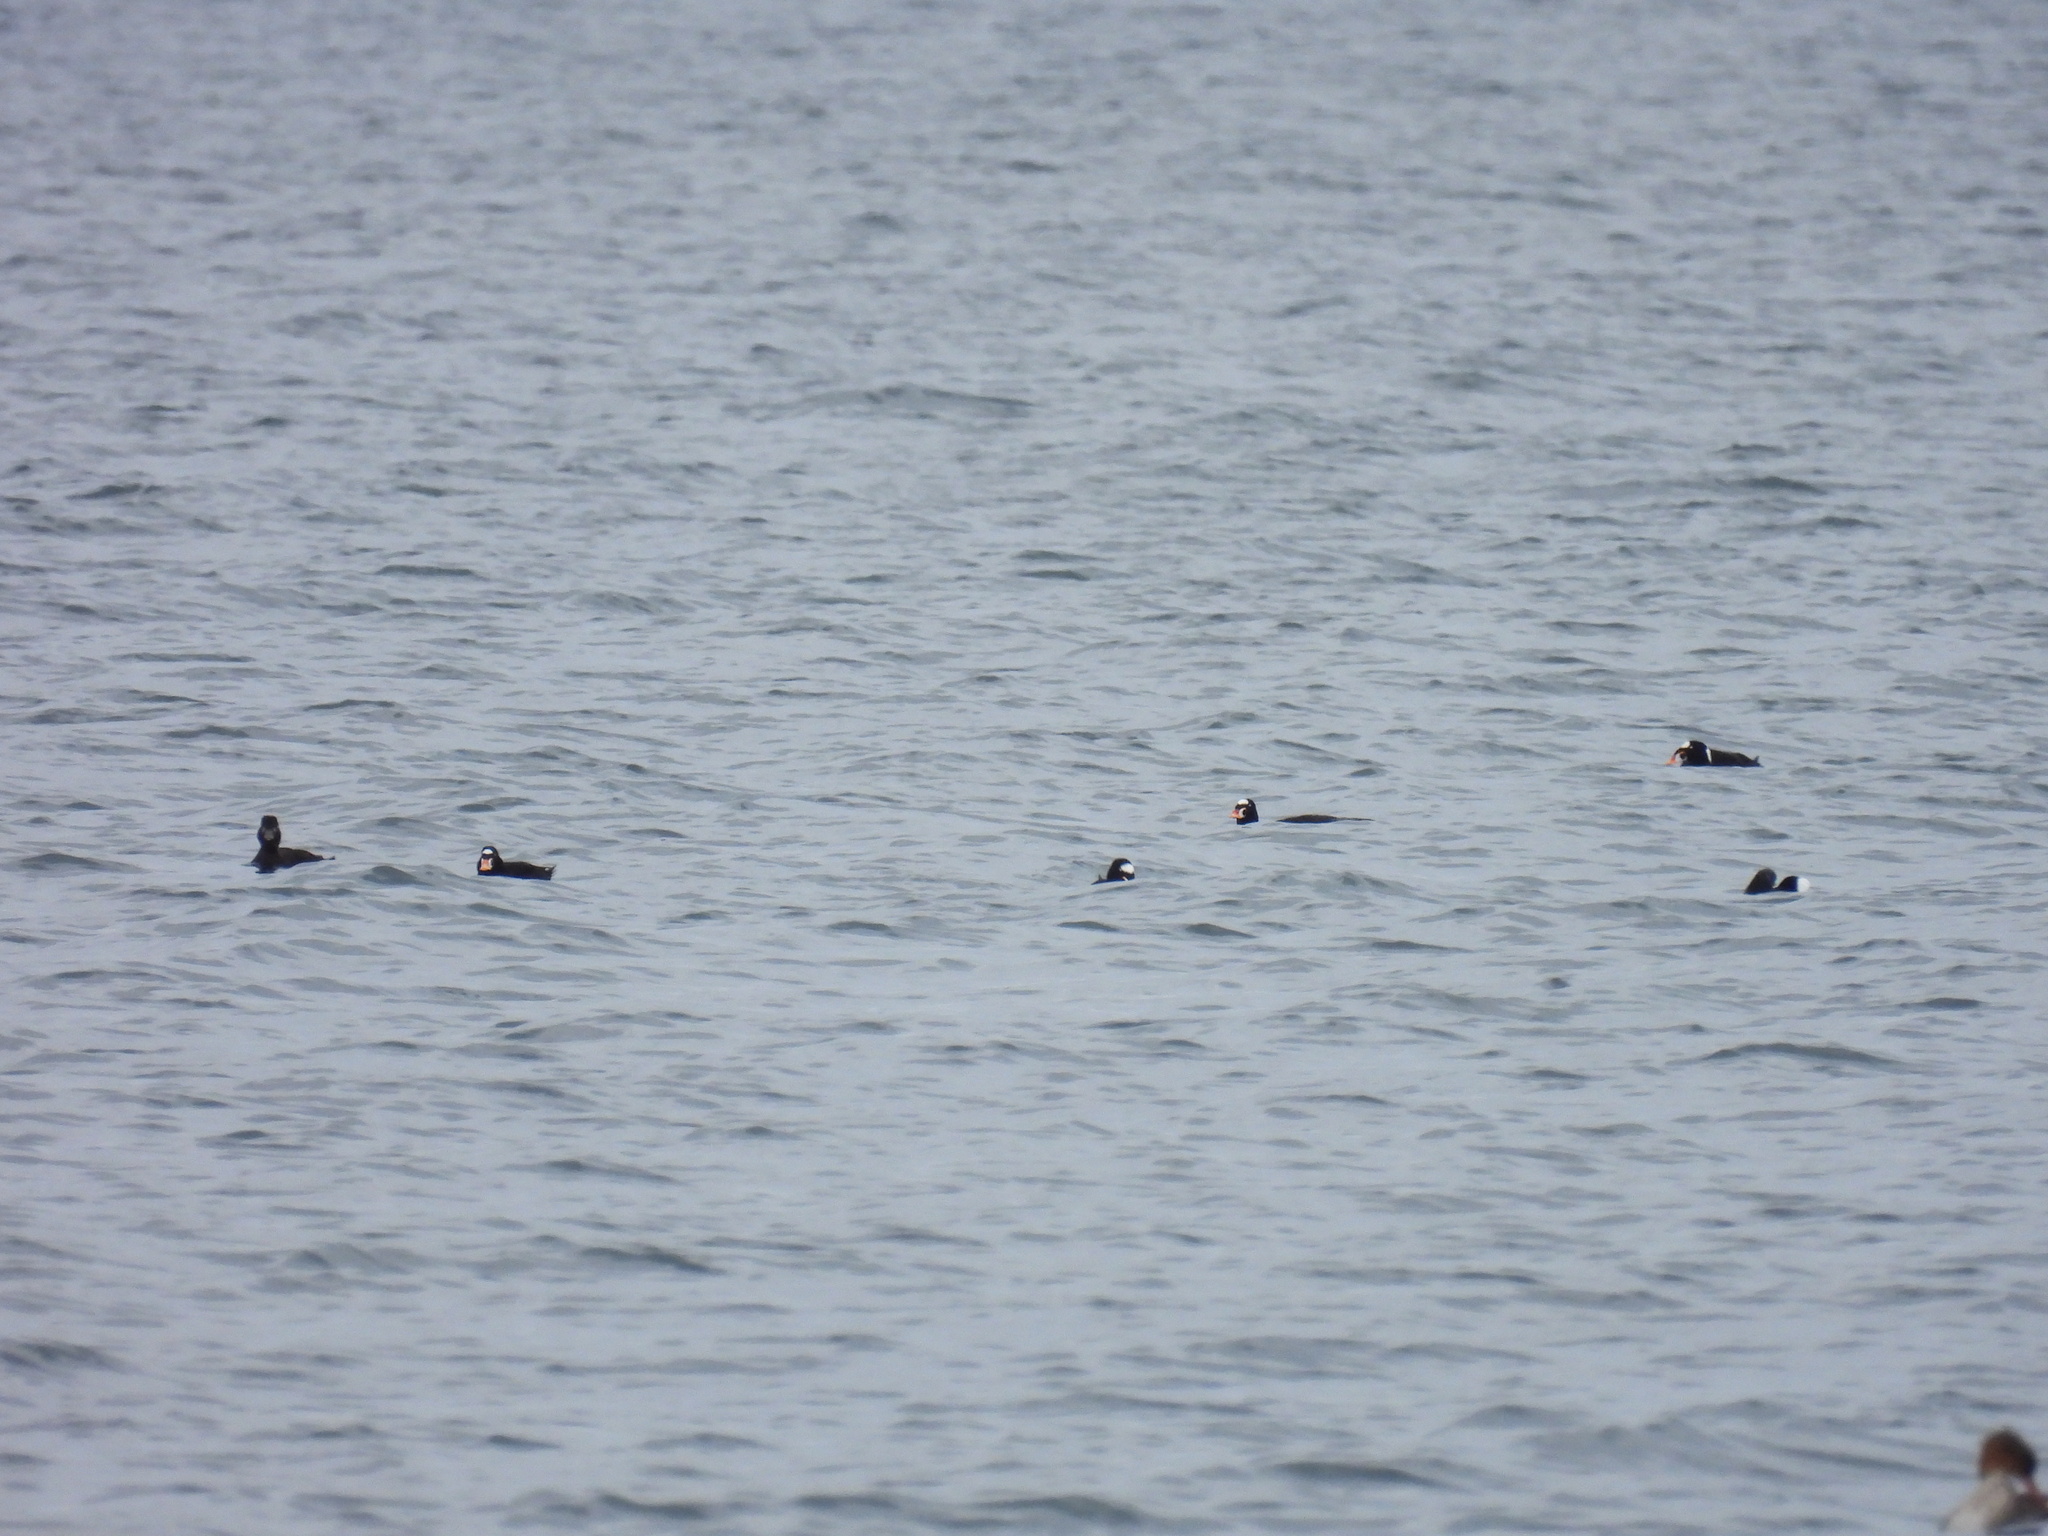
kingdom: Animalia
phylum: Chordata
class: Aves
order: Anseriformes
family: Anatidae
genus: Melanitta
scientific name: Melanitta perspicillata
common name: Surf scoter
